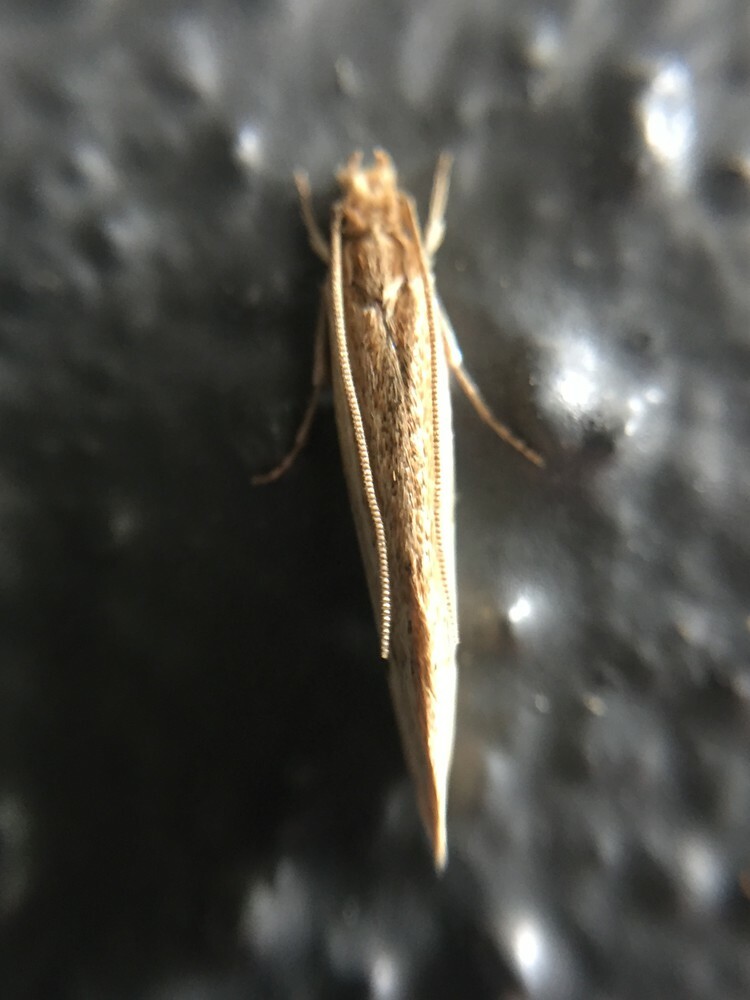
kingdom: Animalia
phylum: Arthropoda
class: Insecta
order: Lepidoptera
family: Tineidae
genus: Prothinodes
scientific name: Prothinodes lutata
